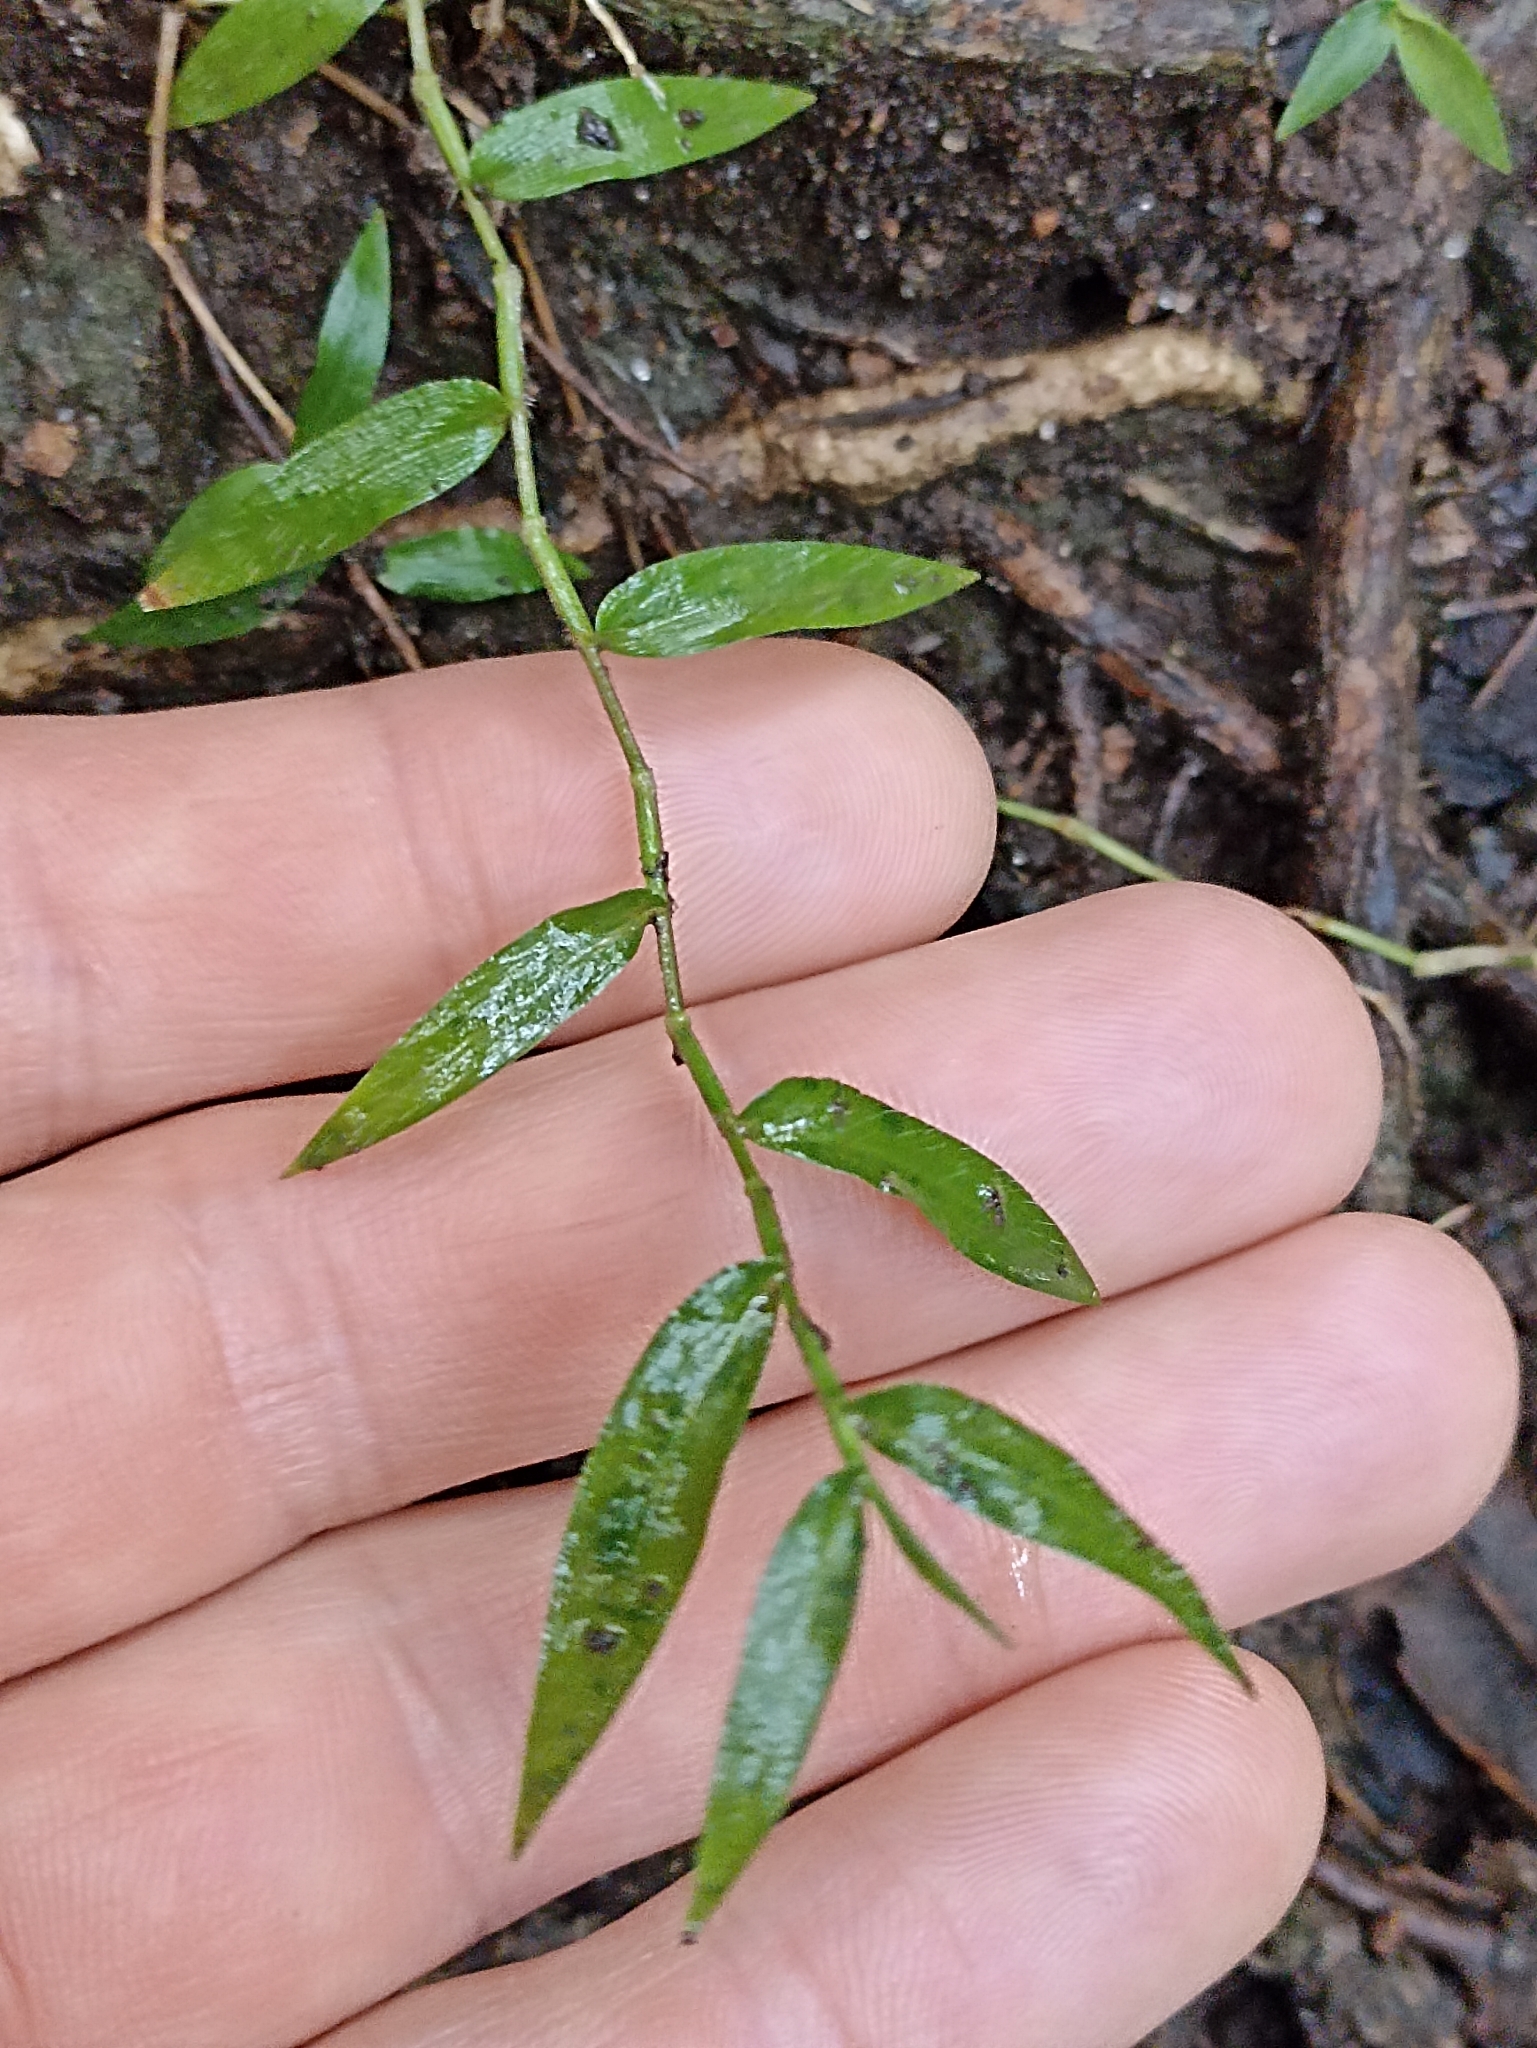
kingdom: Plantae
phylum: Tracheophyta
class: Liliopsida
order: Poales
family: Poaceae
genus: Oplismenus
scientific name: Oplismenus hirtellus
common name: Basketgrass
